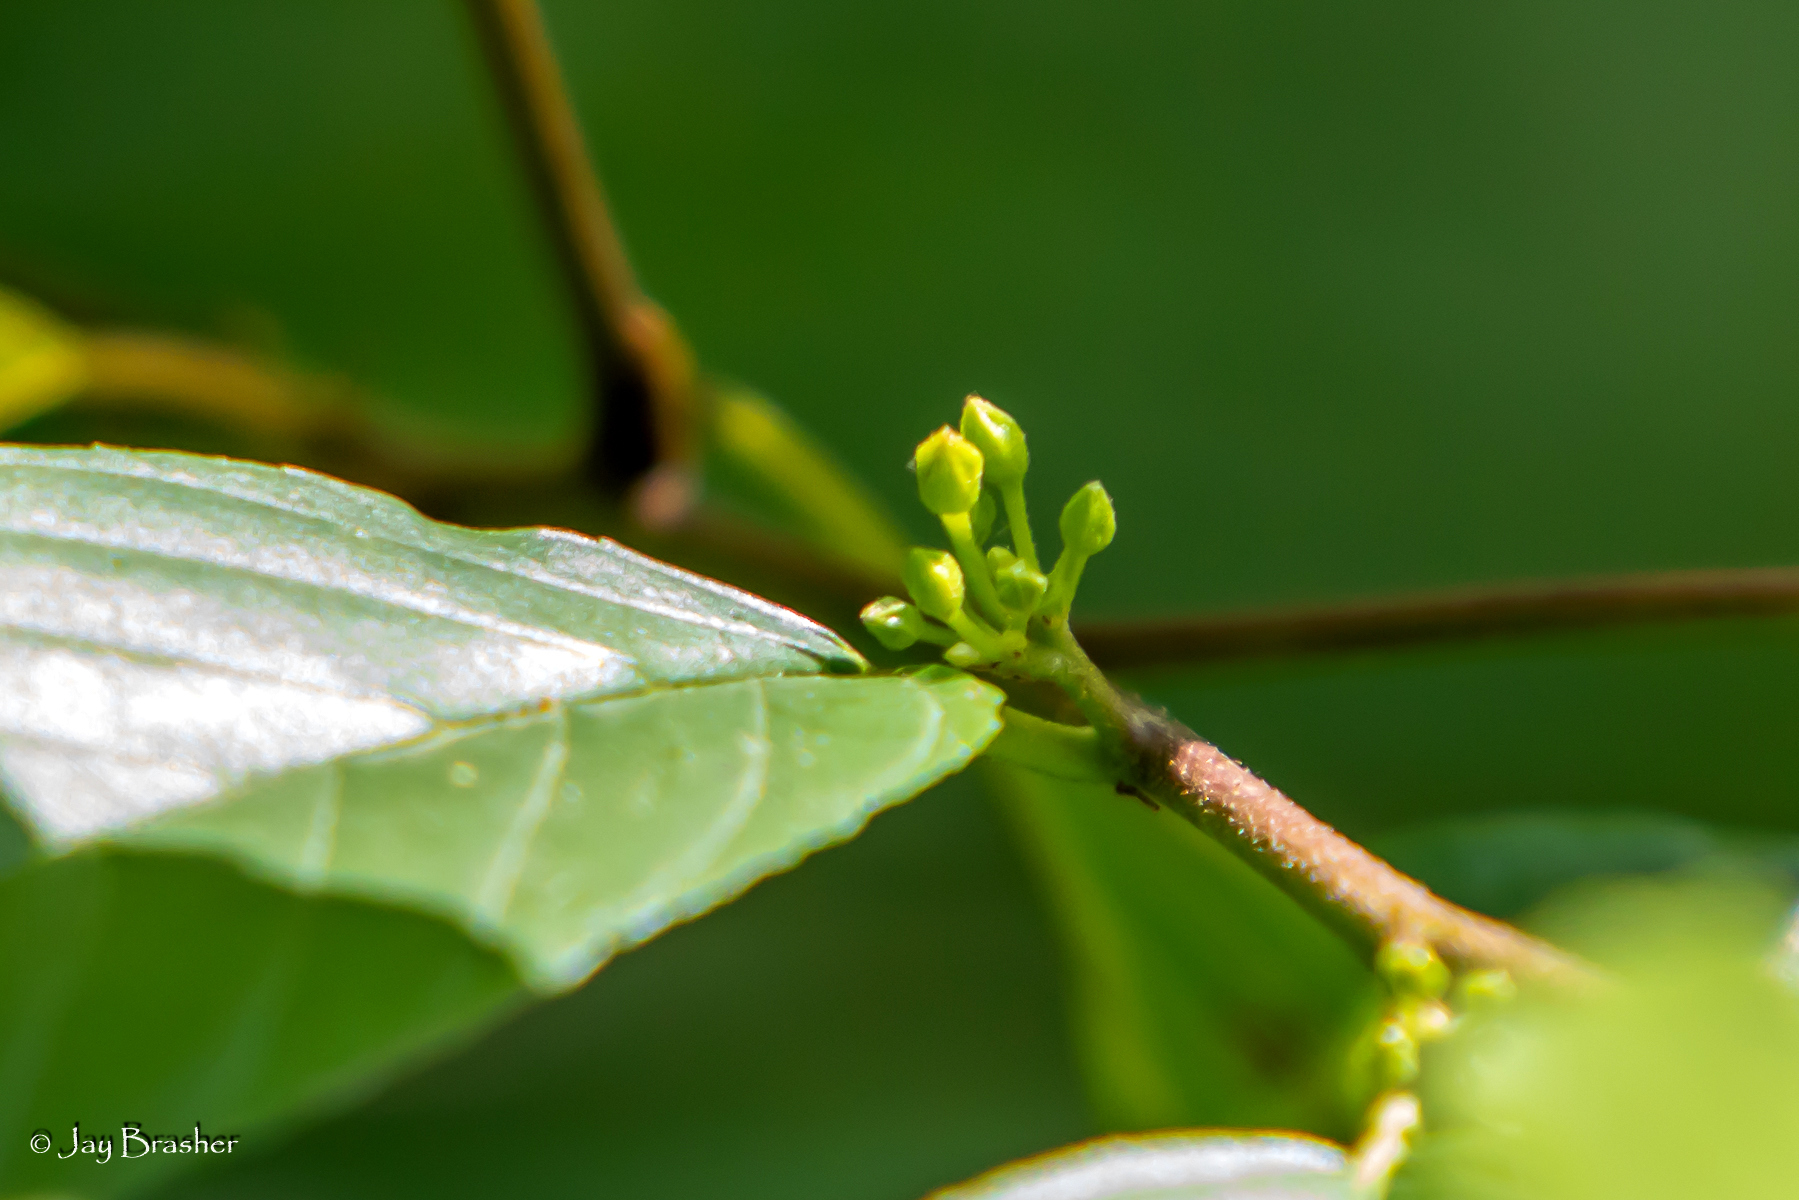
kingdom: Plantae
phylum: Tracheophyta
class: Magnoliopsida
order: Rosales
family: Rhamnaceae
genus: Frangula
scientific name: Frangula caroliniana
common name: Carolina buckthorn
